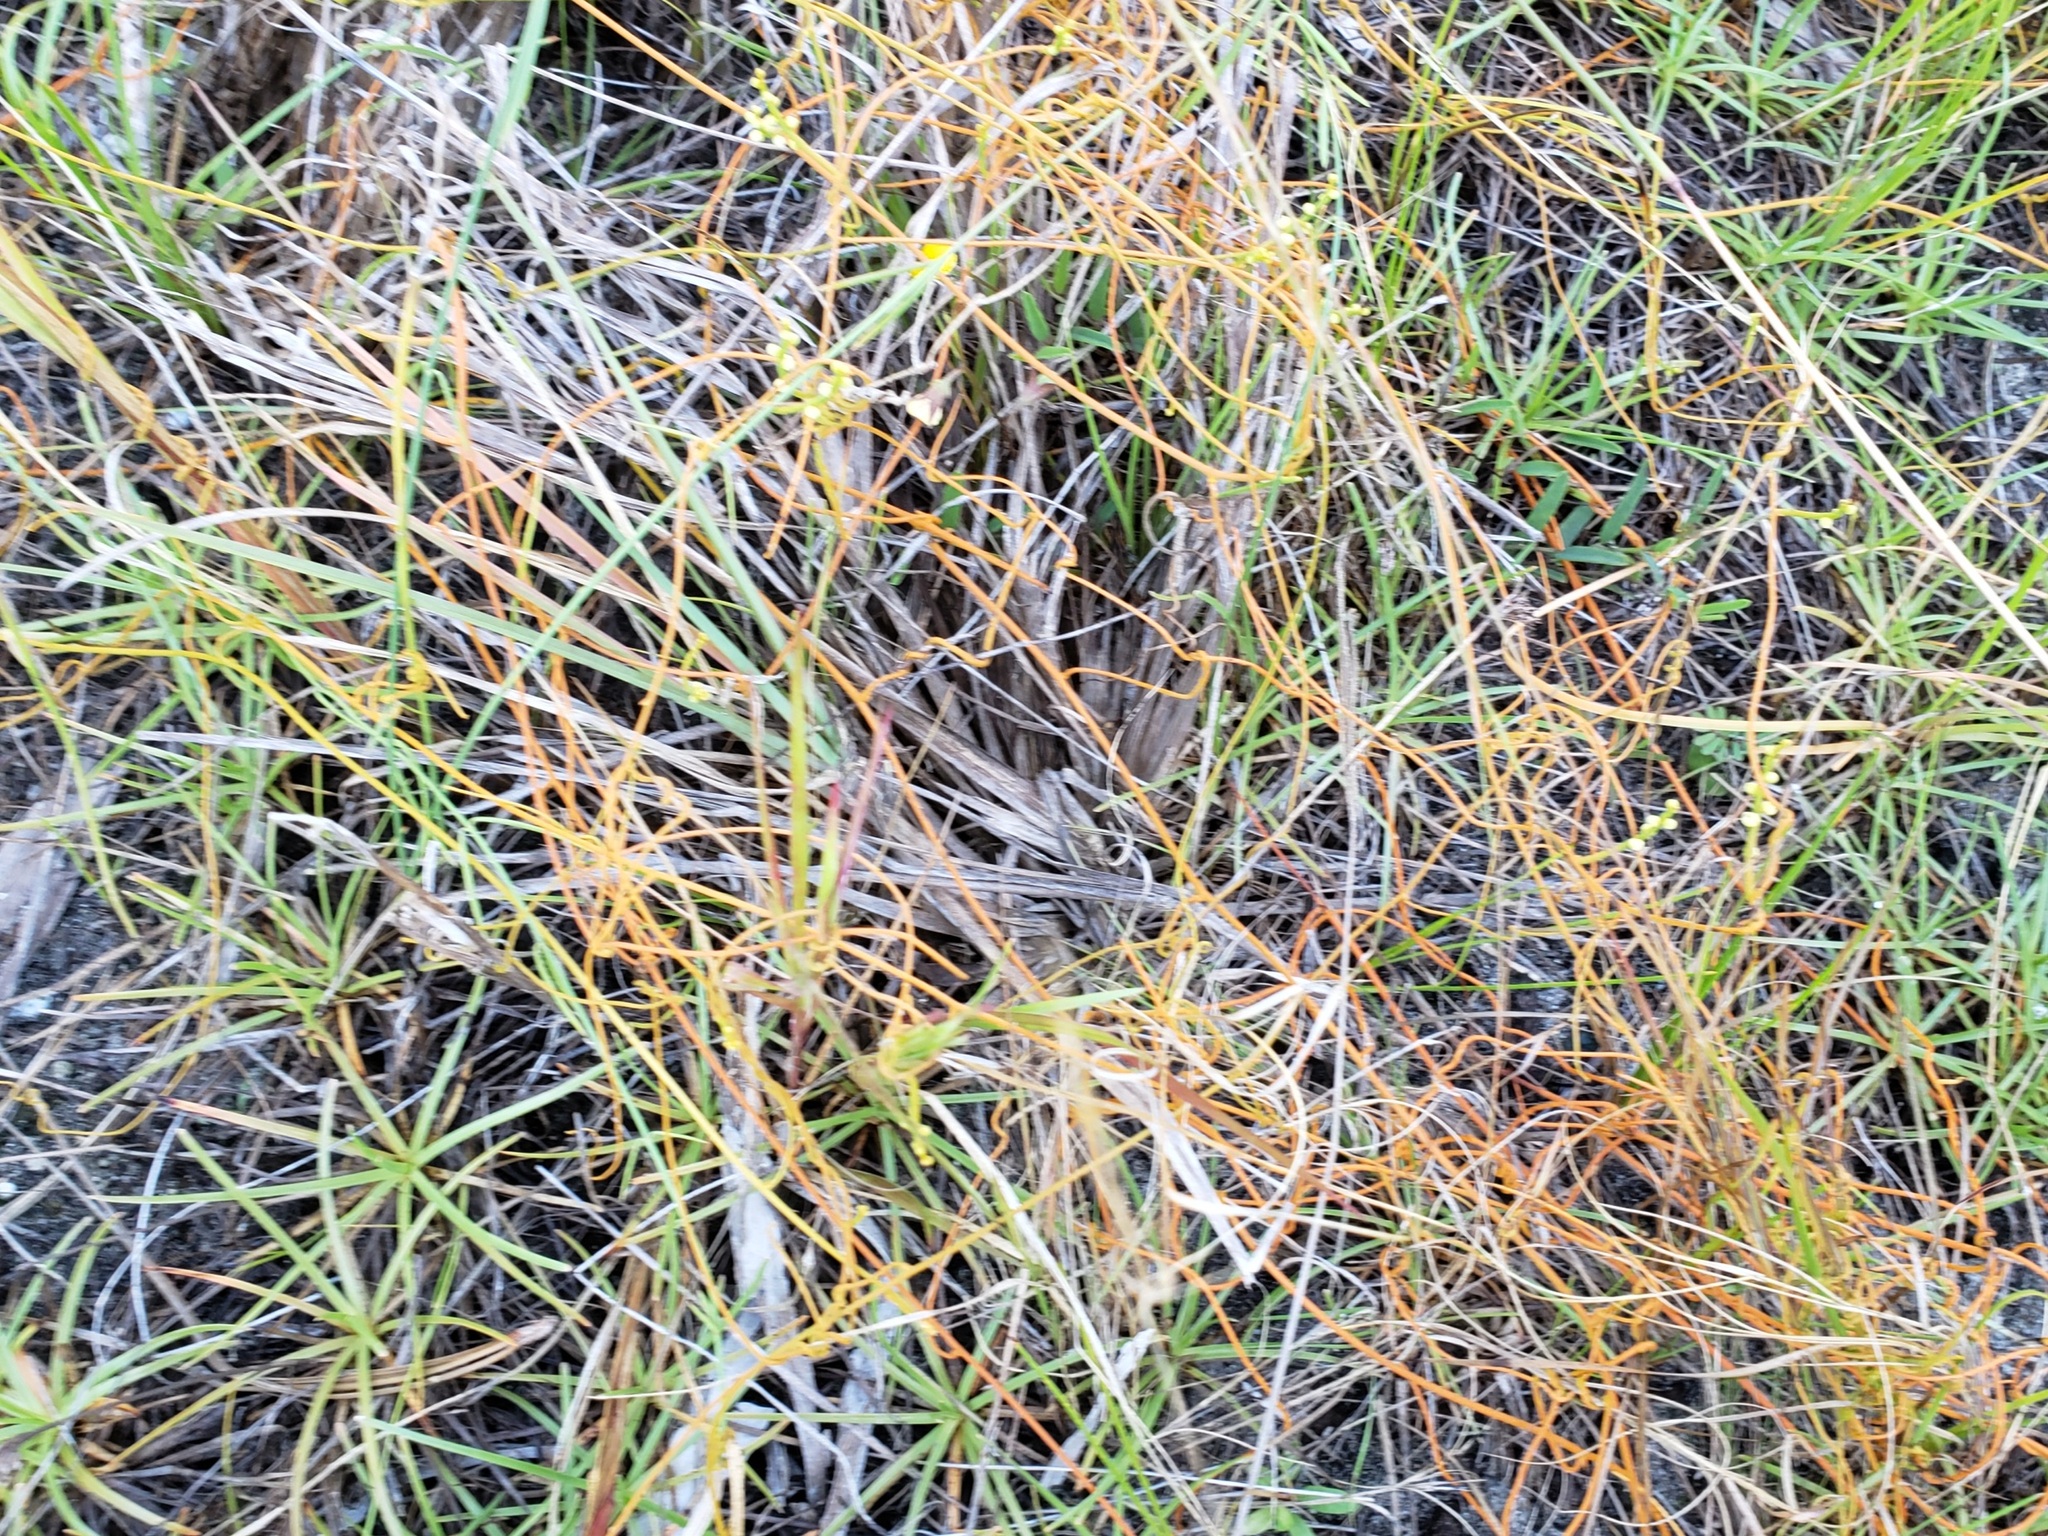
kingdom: Plantae
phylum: Tracheophyta
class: Magnoliopsida
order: Laurales
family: Lauraceae
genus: Cassytha
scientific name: Cassytha filiformis
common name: Dodder-laurel
